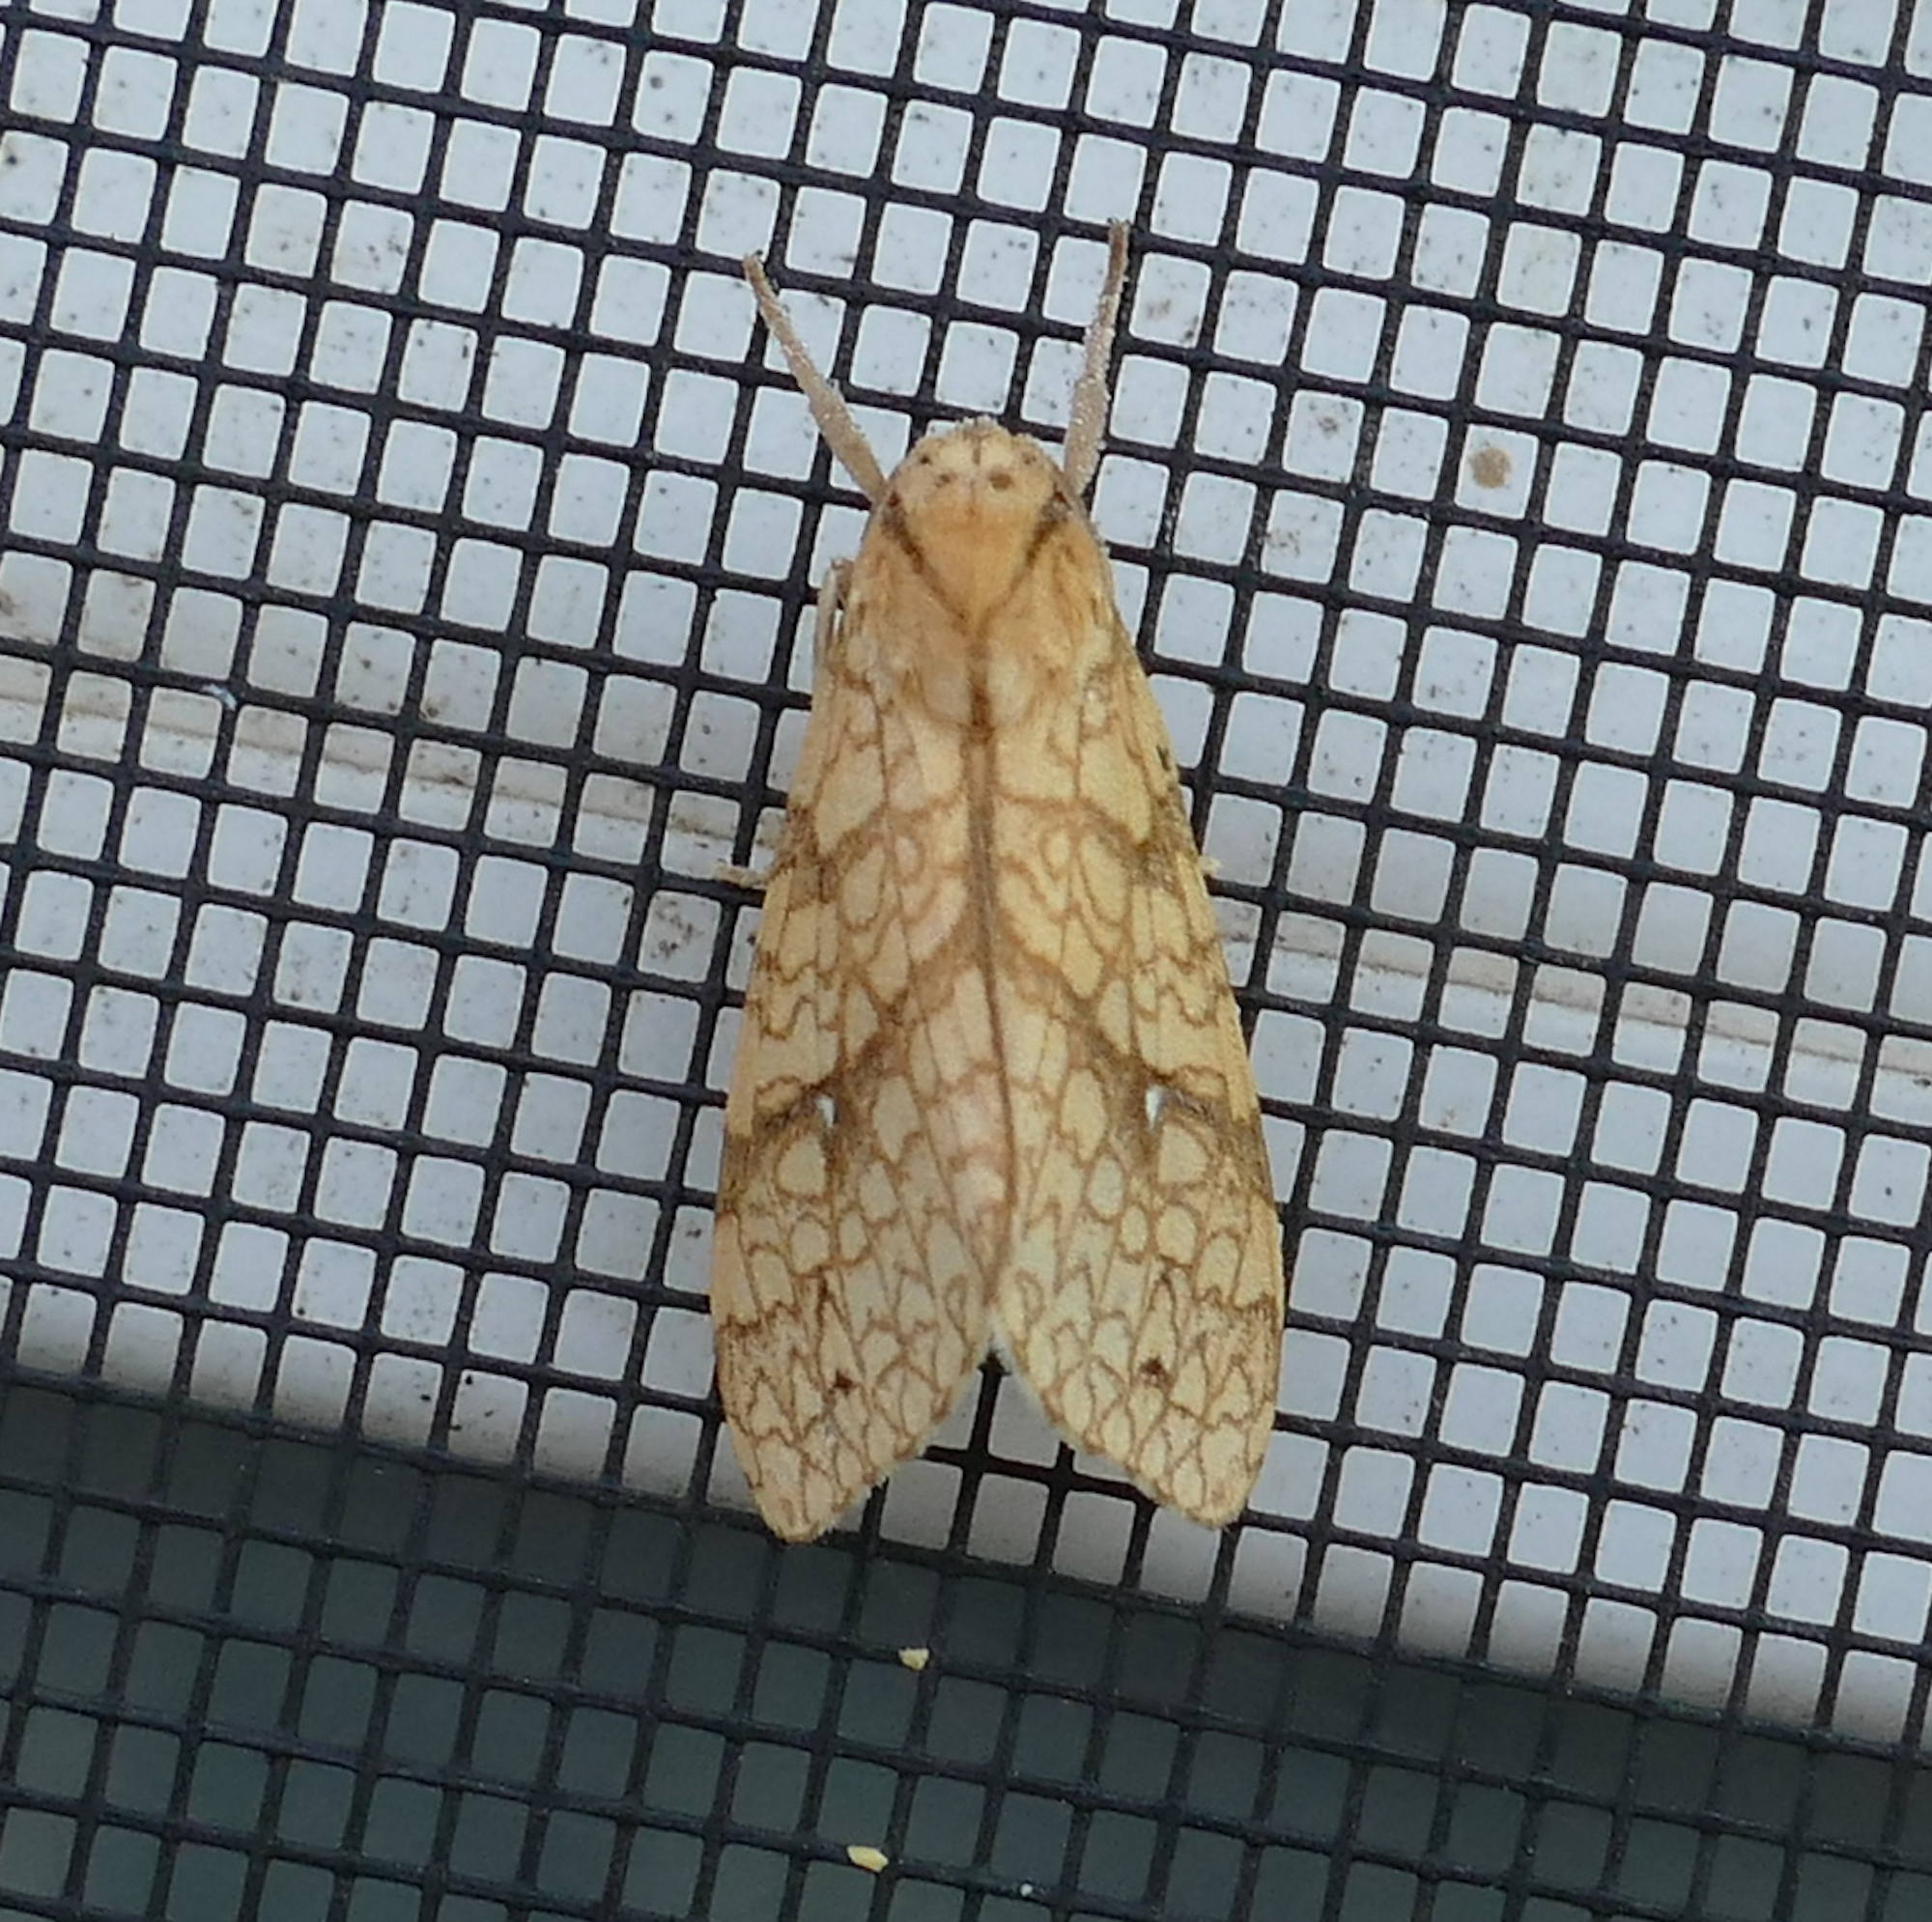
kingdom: Animalia
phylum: Arthropoda
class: Insecta
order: Lepidoptera
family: Erebidae
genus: Lophocampa
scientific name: Lophocampa annulosa
